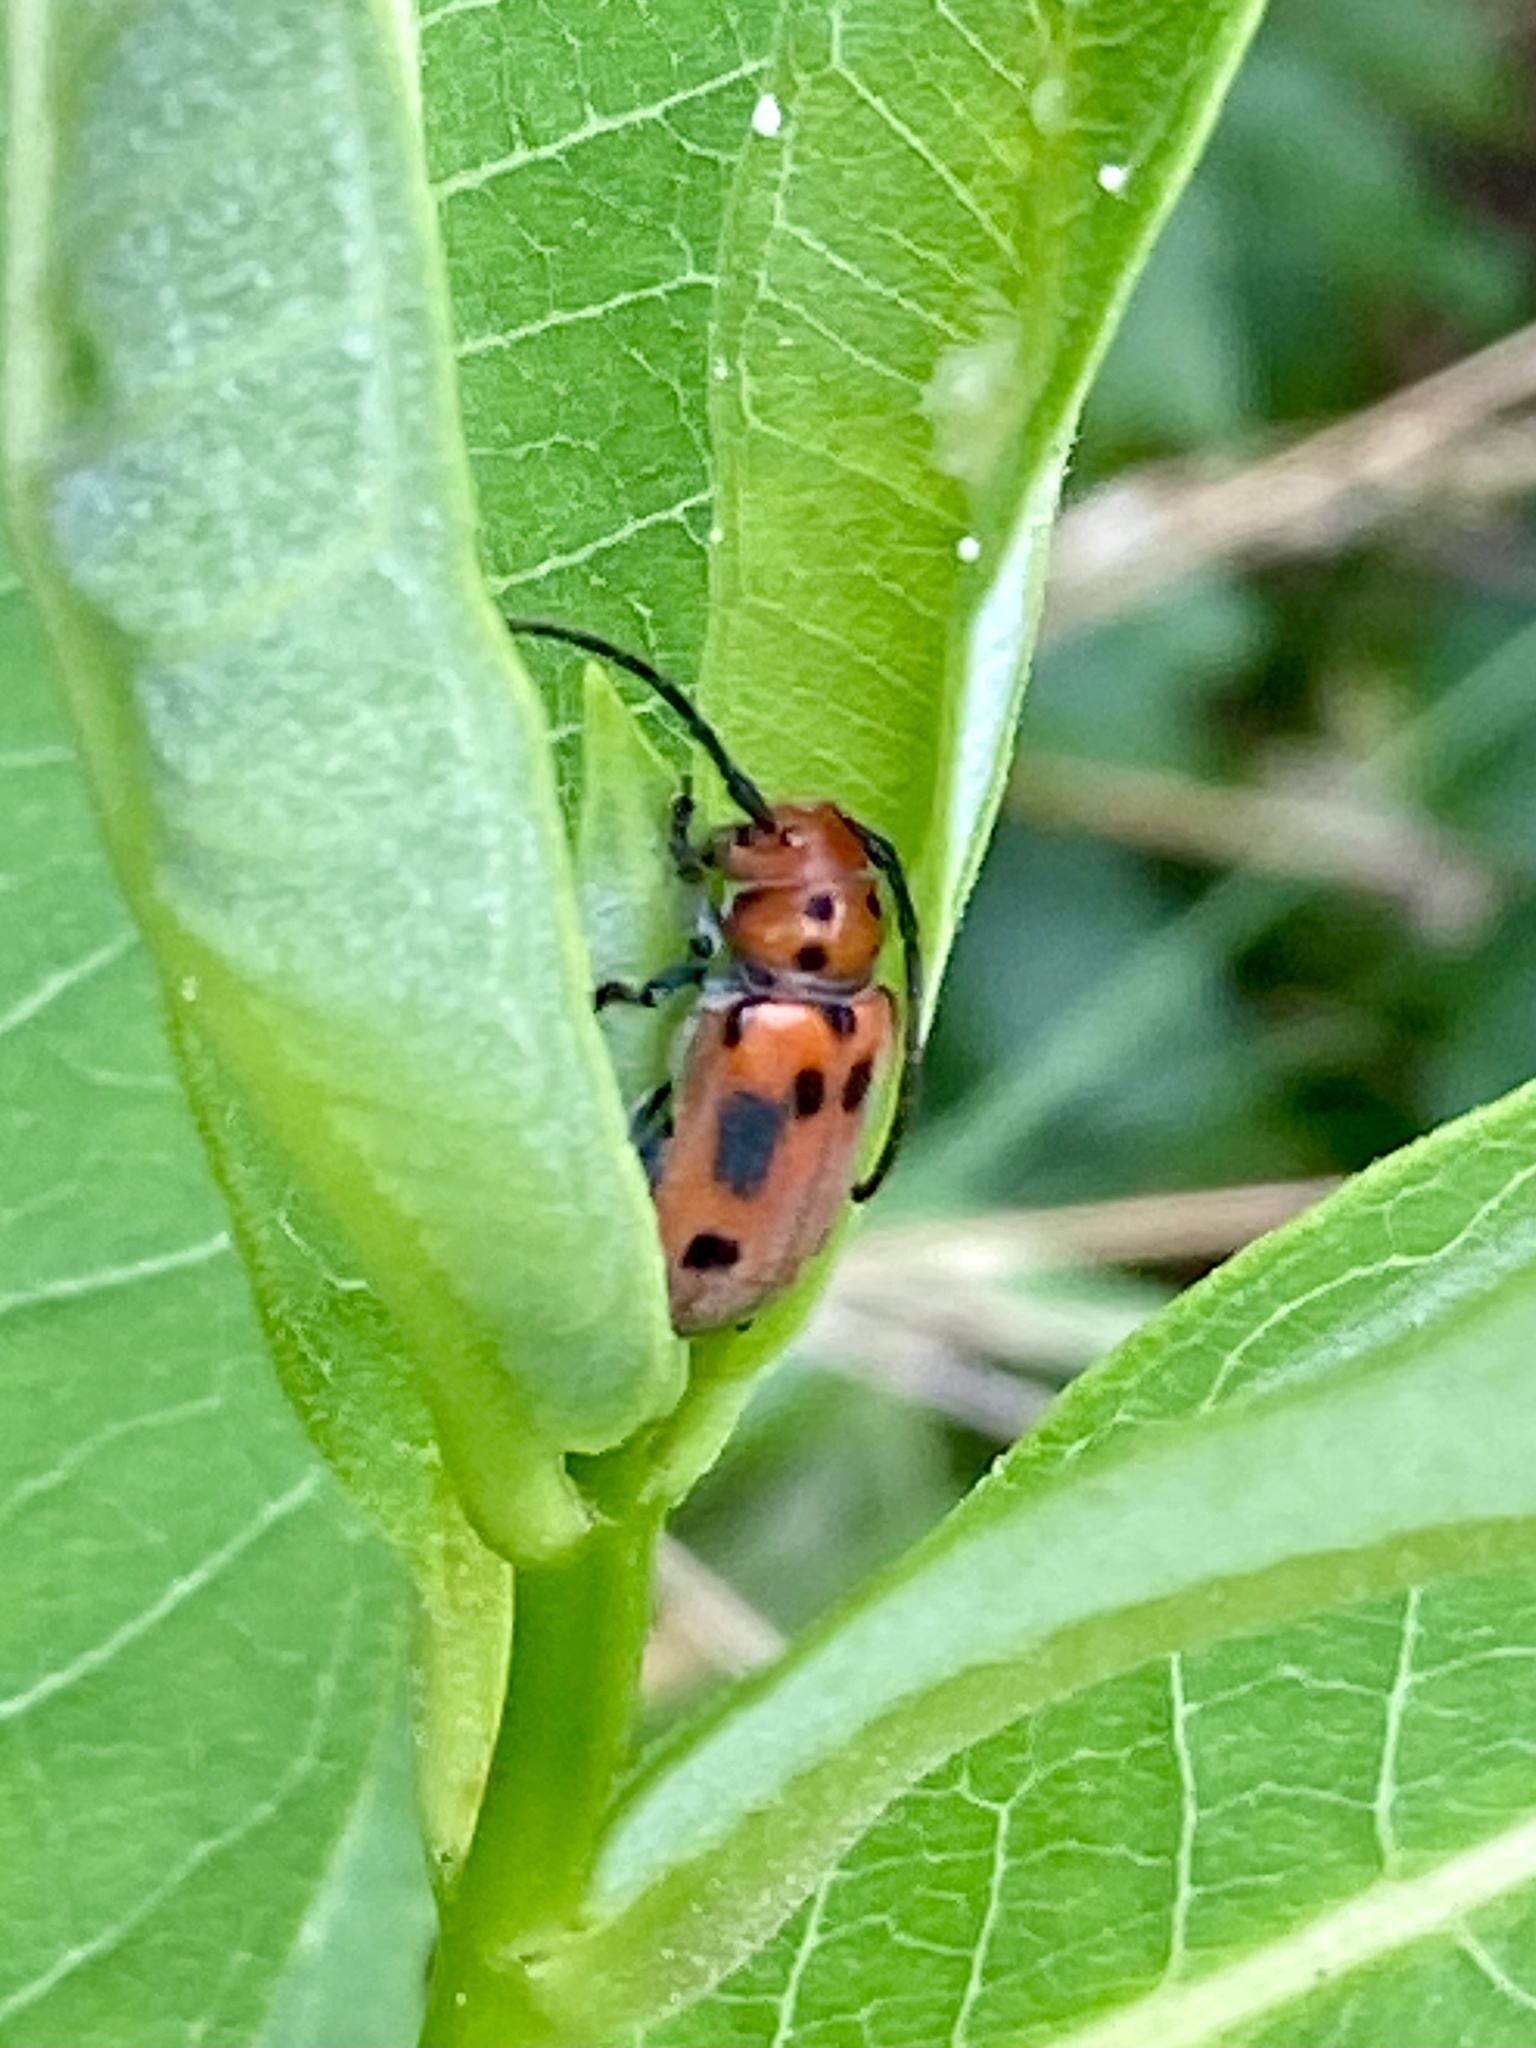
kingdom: Animalia
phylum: Arthropoda
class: Insecta
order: Coleoptera
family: Cerambycidae
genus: Tetraopes
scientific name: Tetraopes tetrophthalmus
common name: Red milkweed beetle
